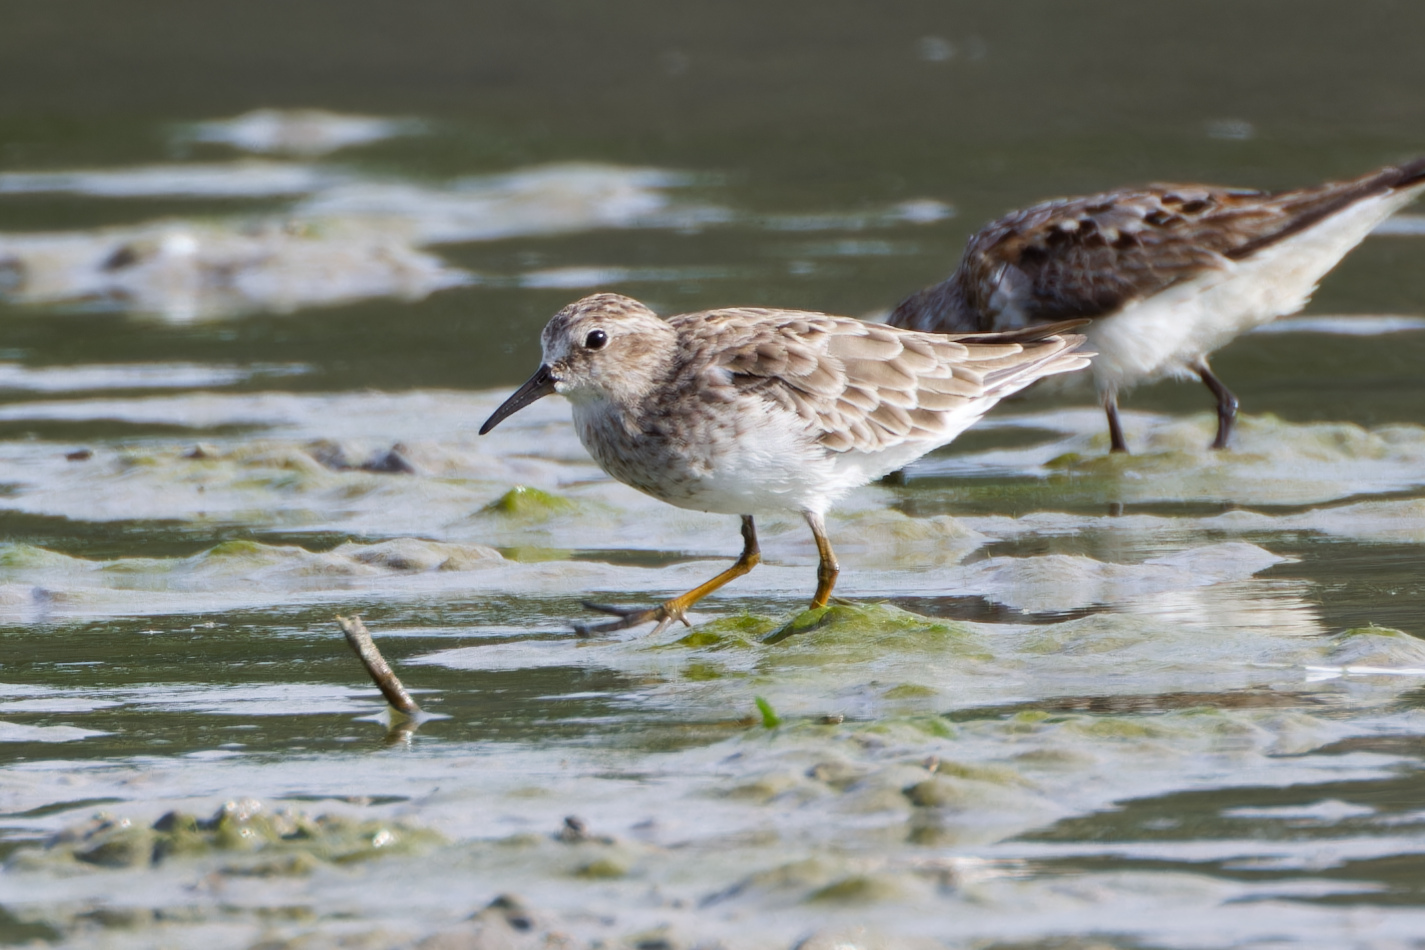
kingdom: Animalia
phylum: Chordata
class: Aves
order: Charadriiformes
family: Scolopacidae
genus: Calidris
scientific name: Calidris minutilla
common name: Least sandpiper
